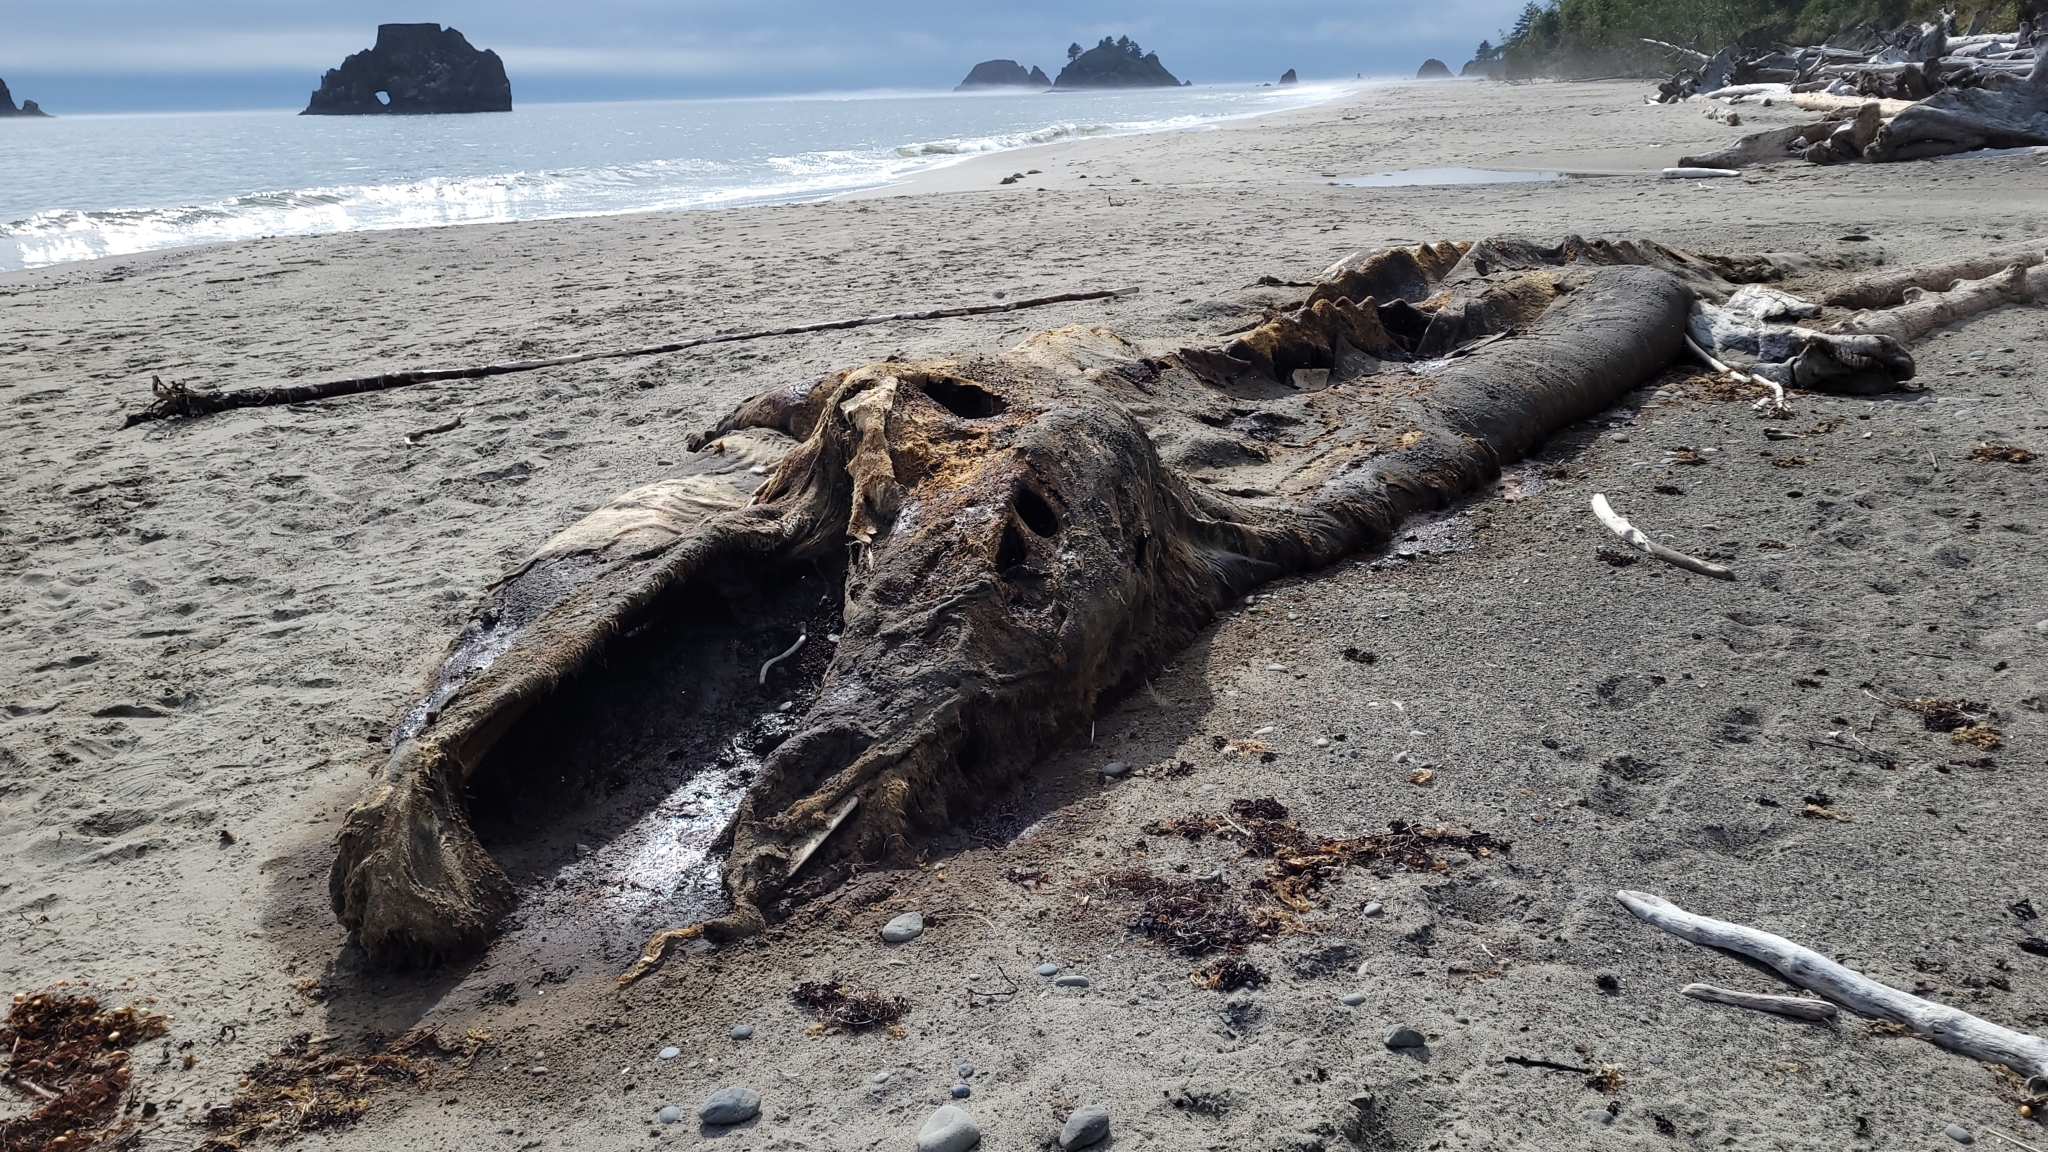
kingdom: Animalia
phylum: Chordata
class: Mammalia
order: Cetacea
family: Eschrichtiidae
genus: Eschrichtius
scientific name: Eschrichtius robustus
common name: Gray whale
